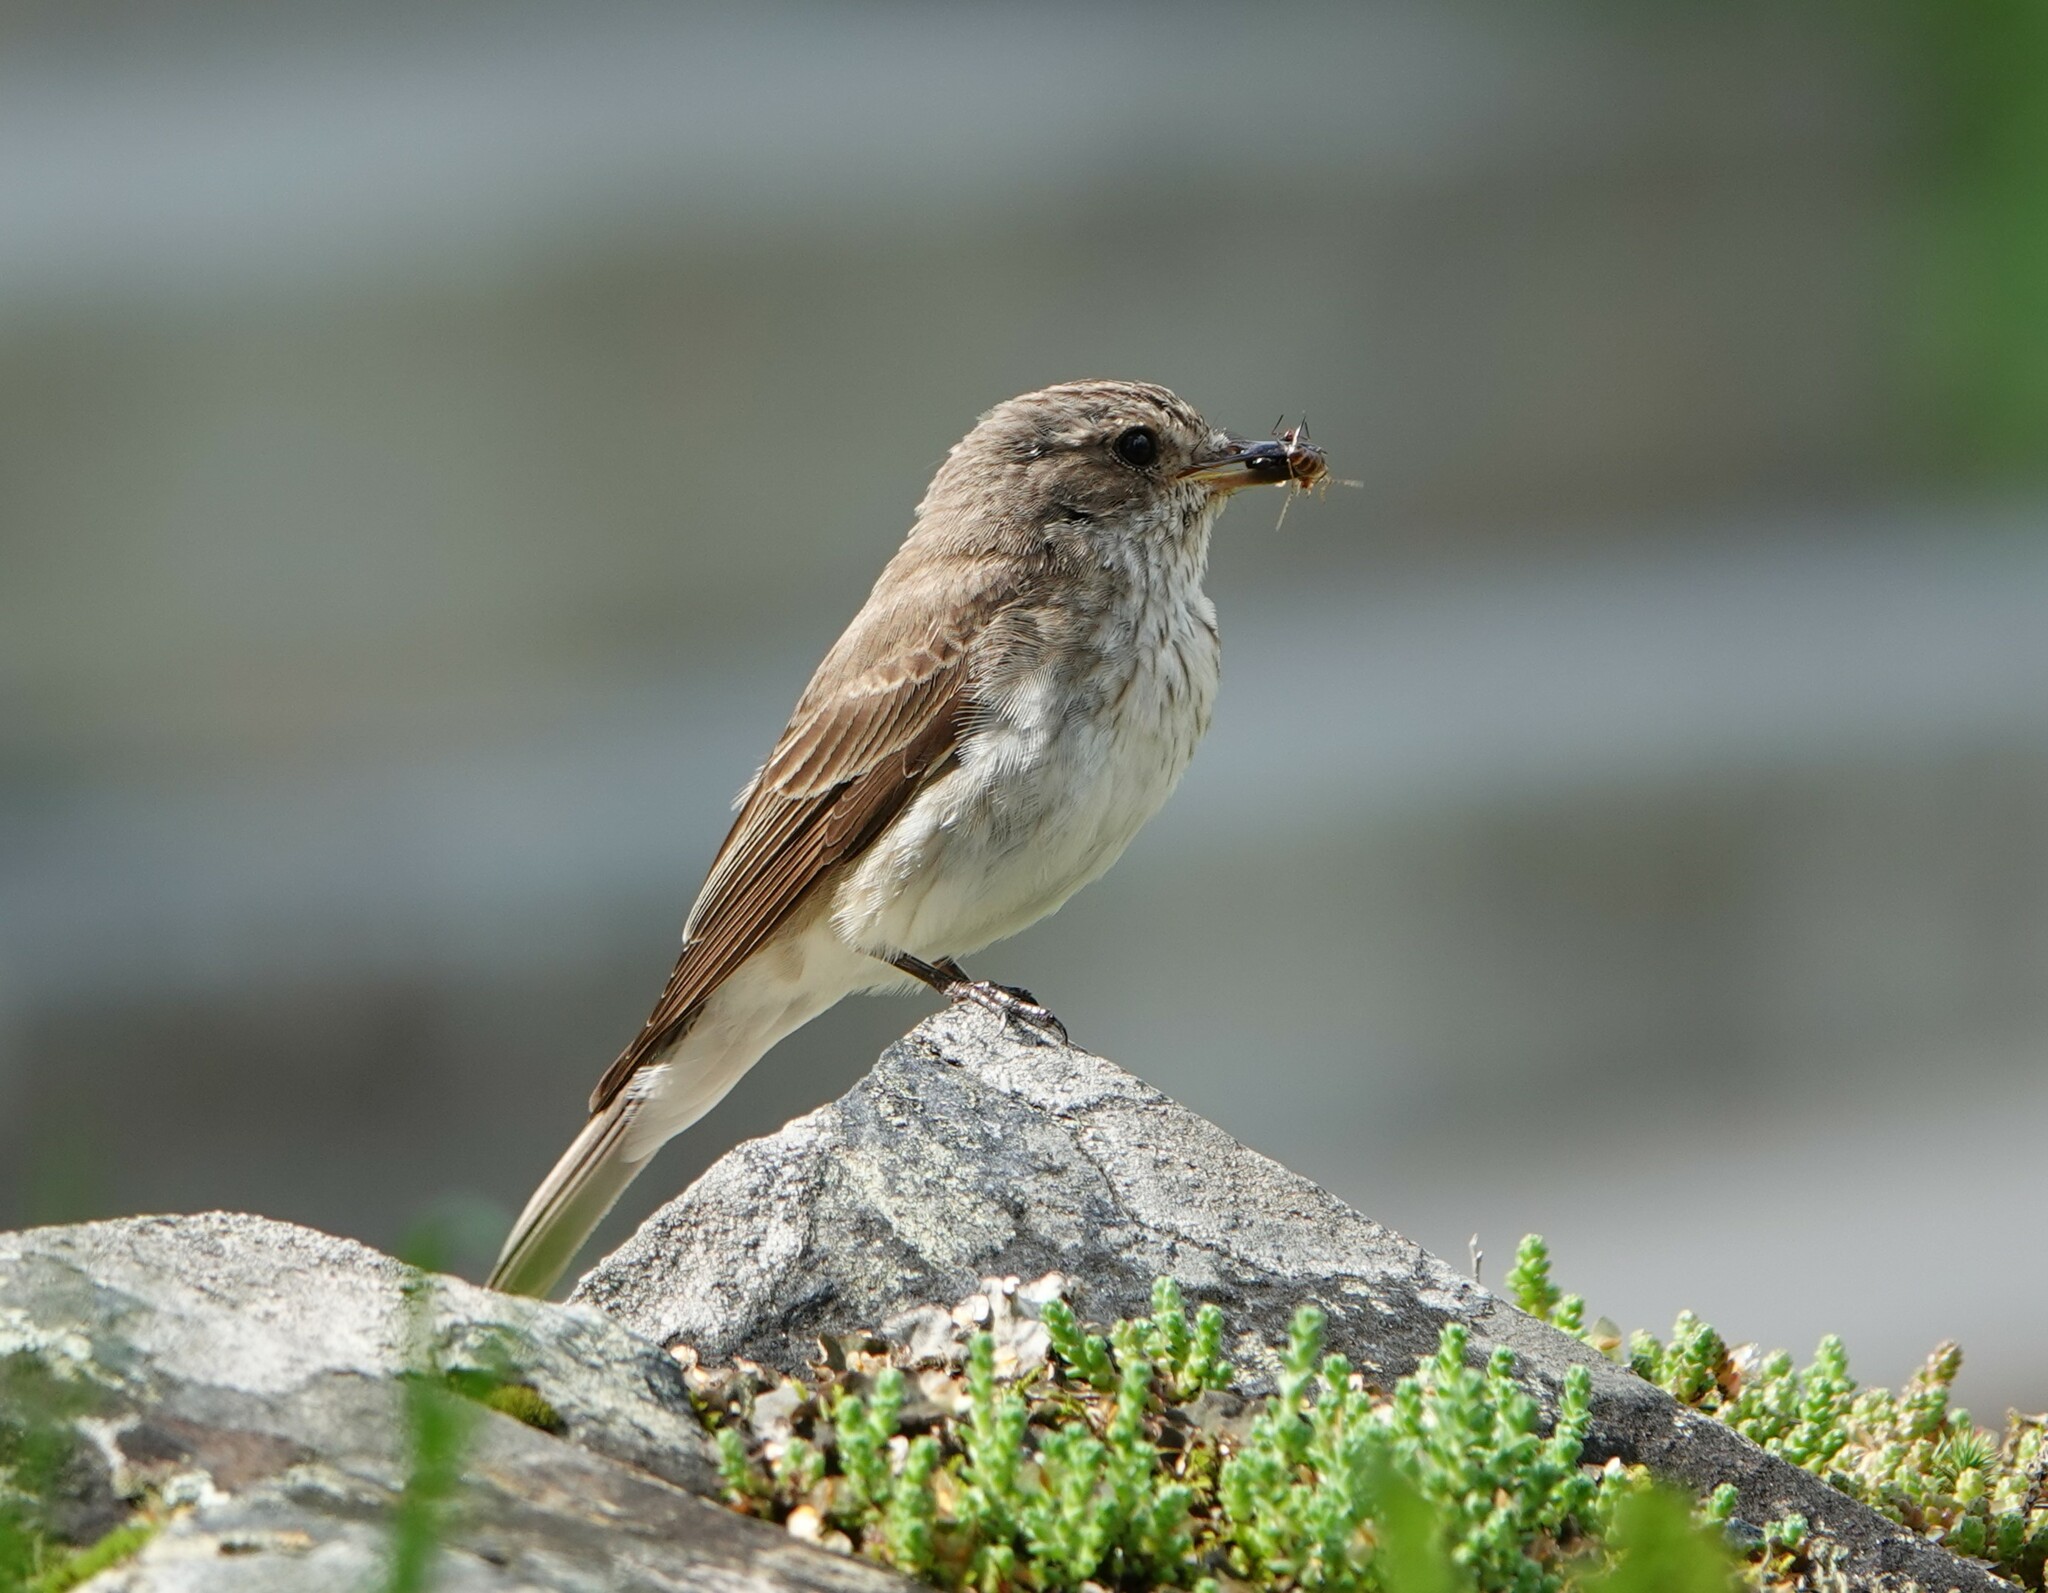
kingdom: Animalia
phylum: Chordata
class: Aves
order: Passeriformes
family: Muscicapidae
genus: Muscicapa
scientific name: Muscicapa striata
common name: Spotted flycatcher
